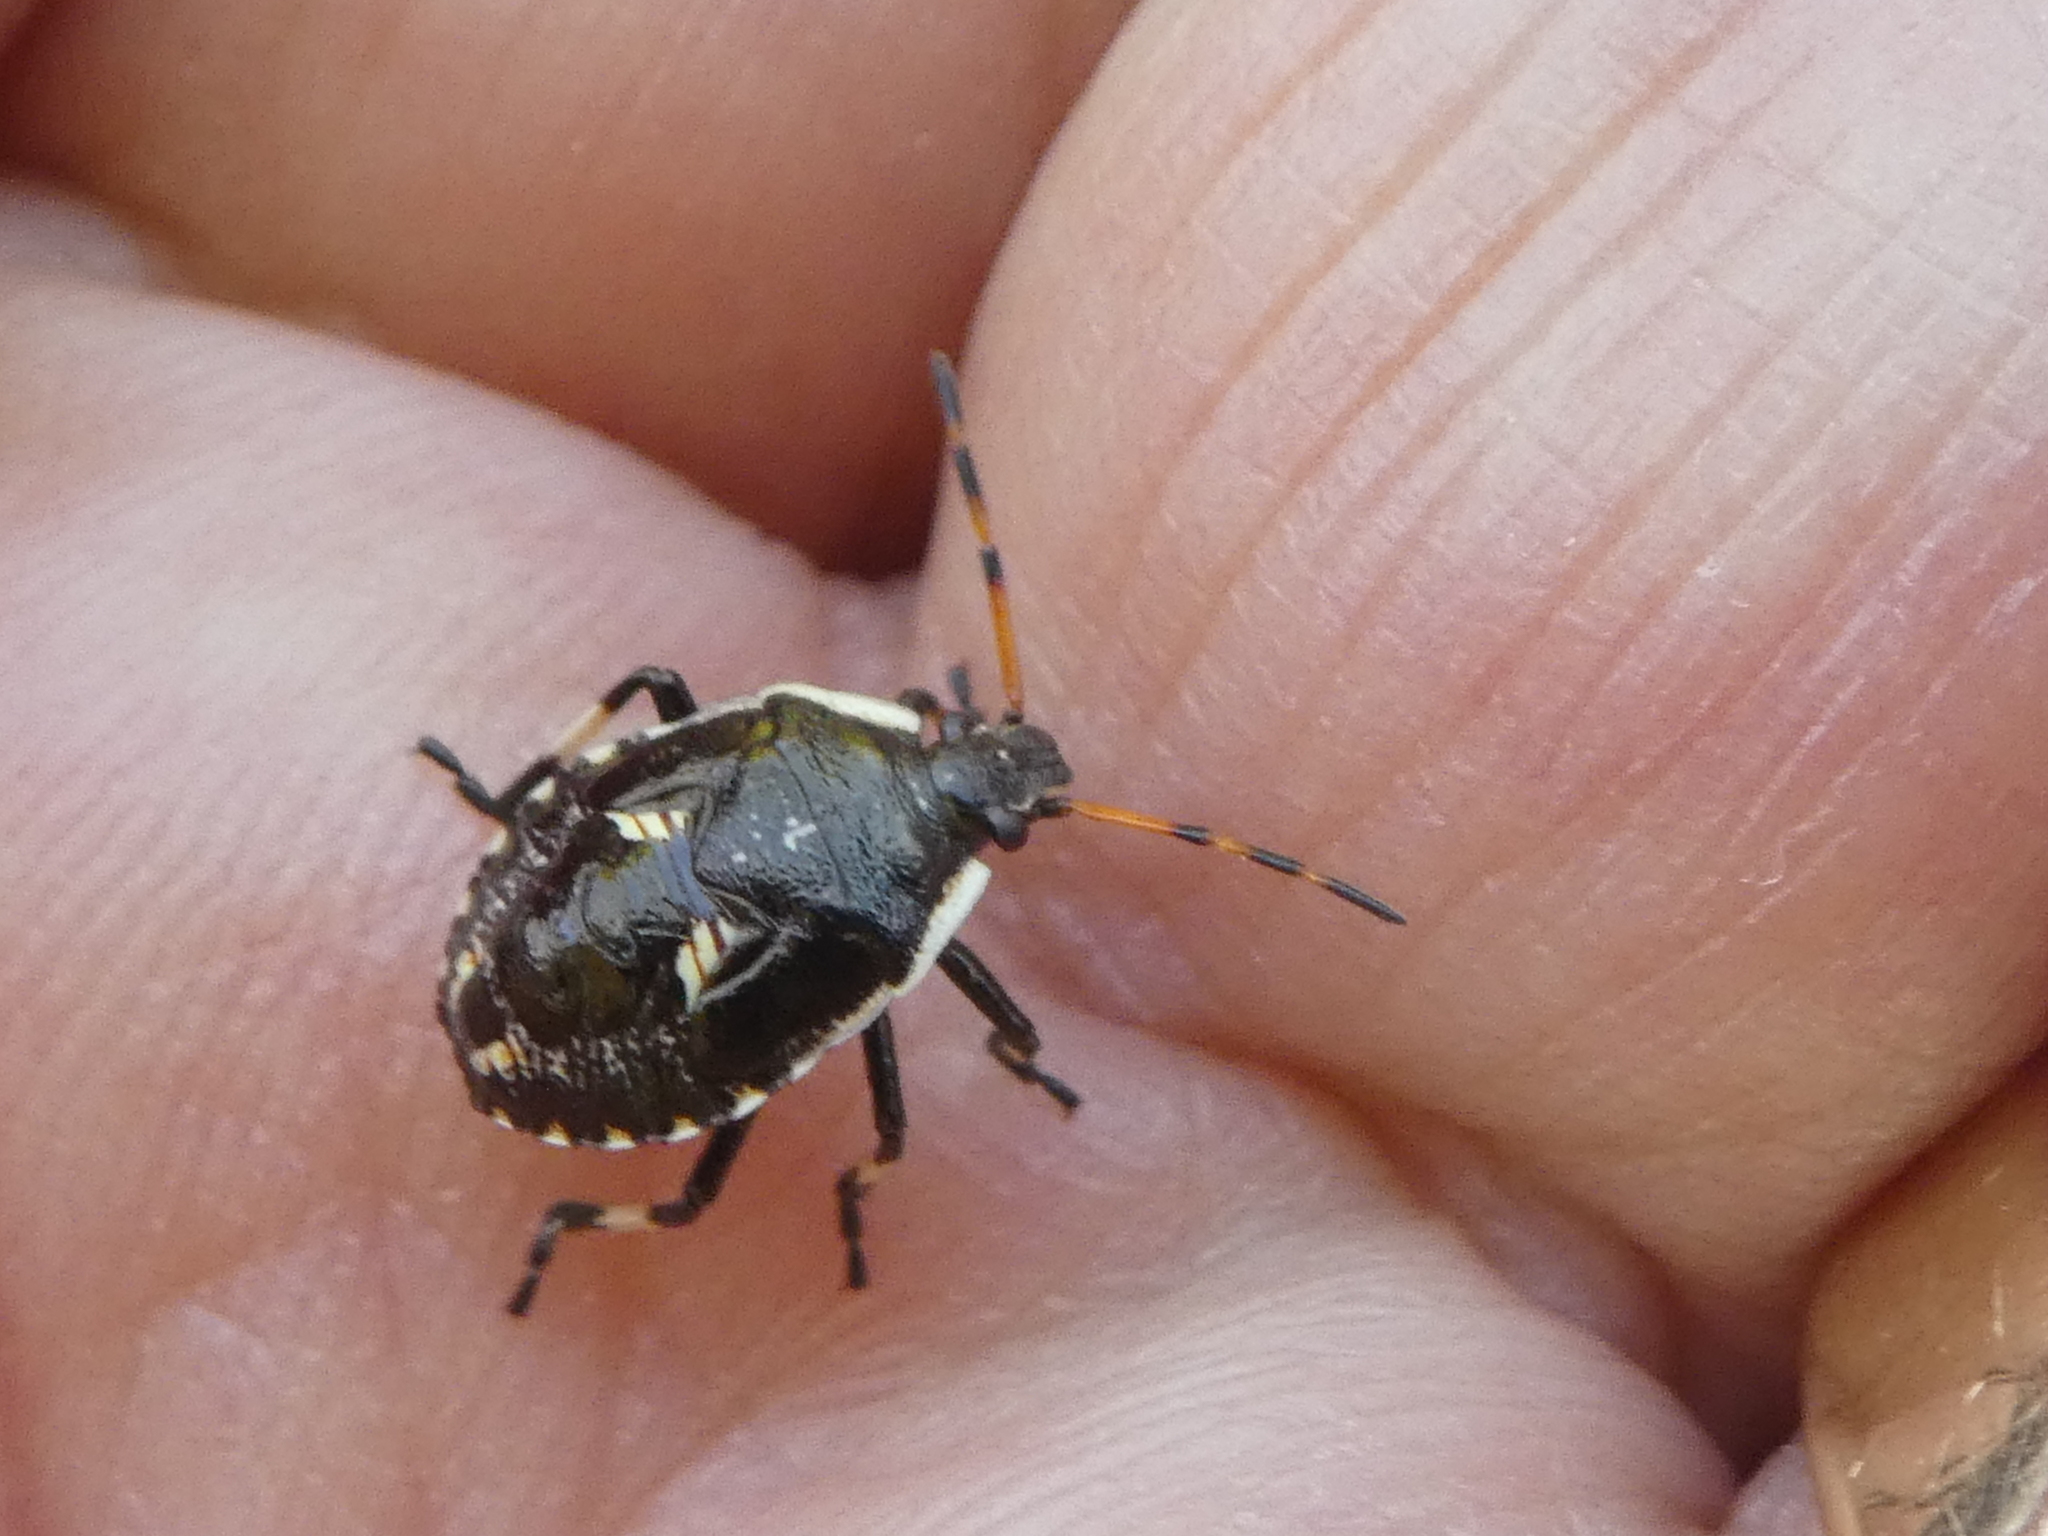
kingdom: Animalia
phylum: Arthropoda
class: Insecta
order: Hemiptera
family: Pentatomidae
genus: Cermatulus
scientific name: Cermatulus nasalis
